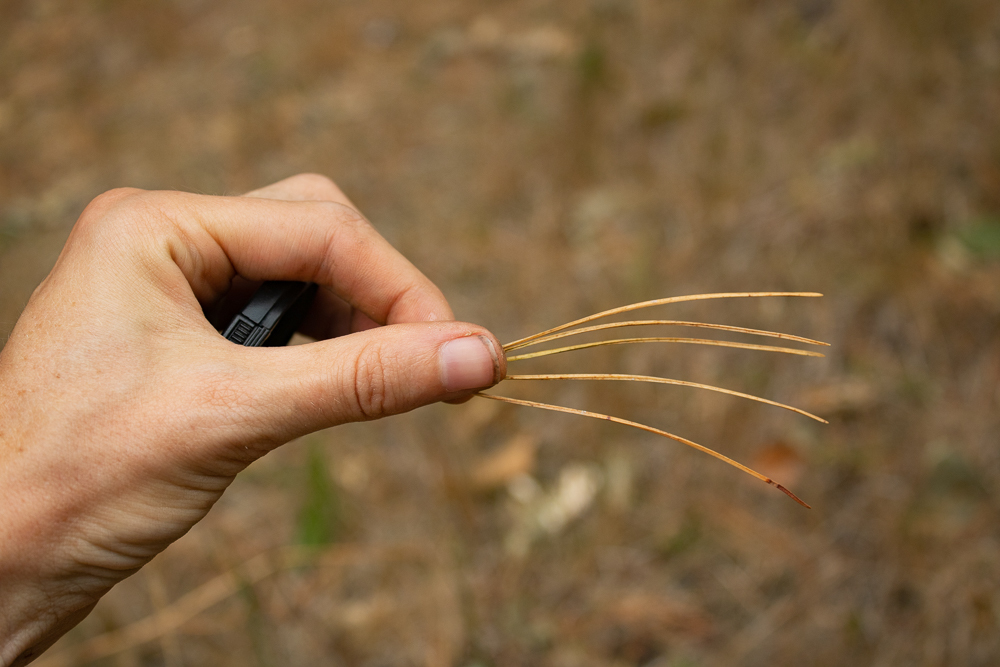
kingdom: Plantae
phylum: Tracheophyta
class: Pinopsida
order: Pinales
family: Pinaceae
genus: Pinus
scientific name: Pinus monticola
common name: Western white pine
